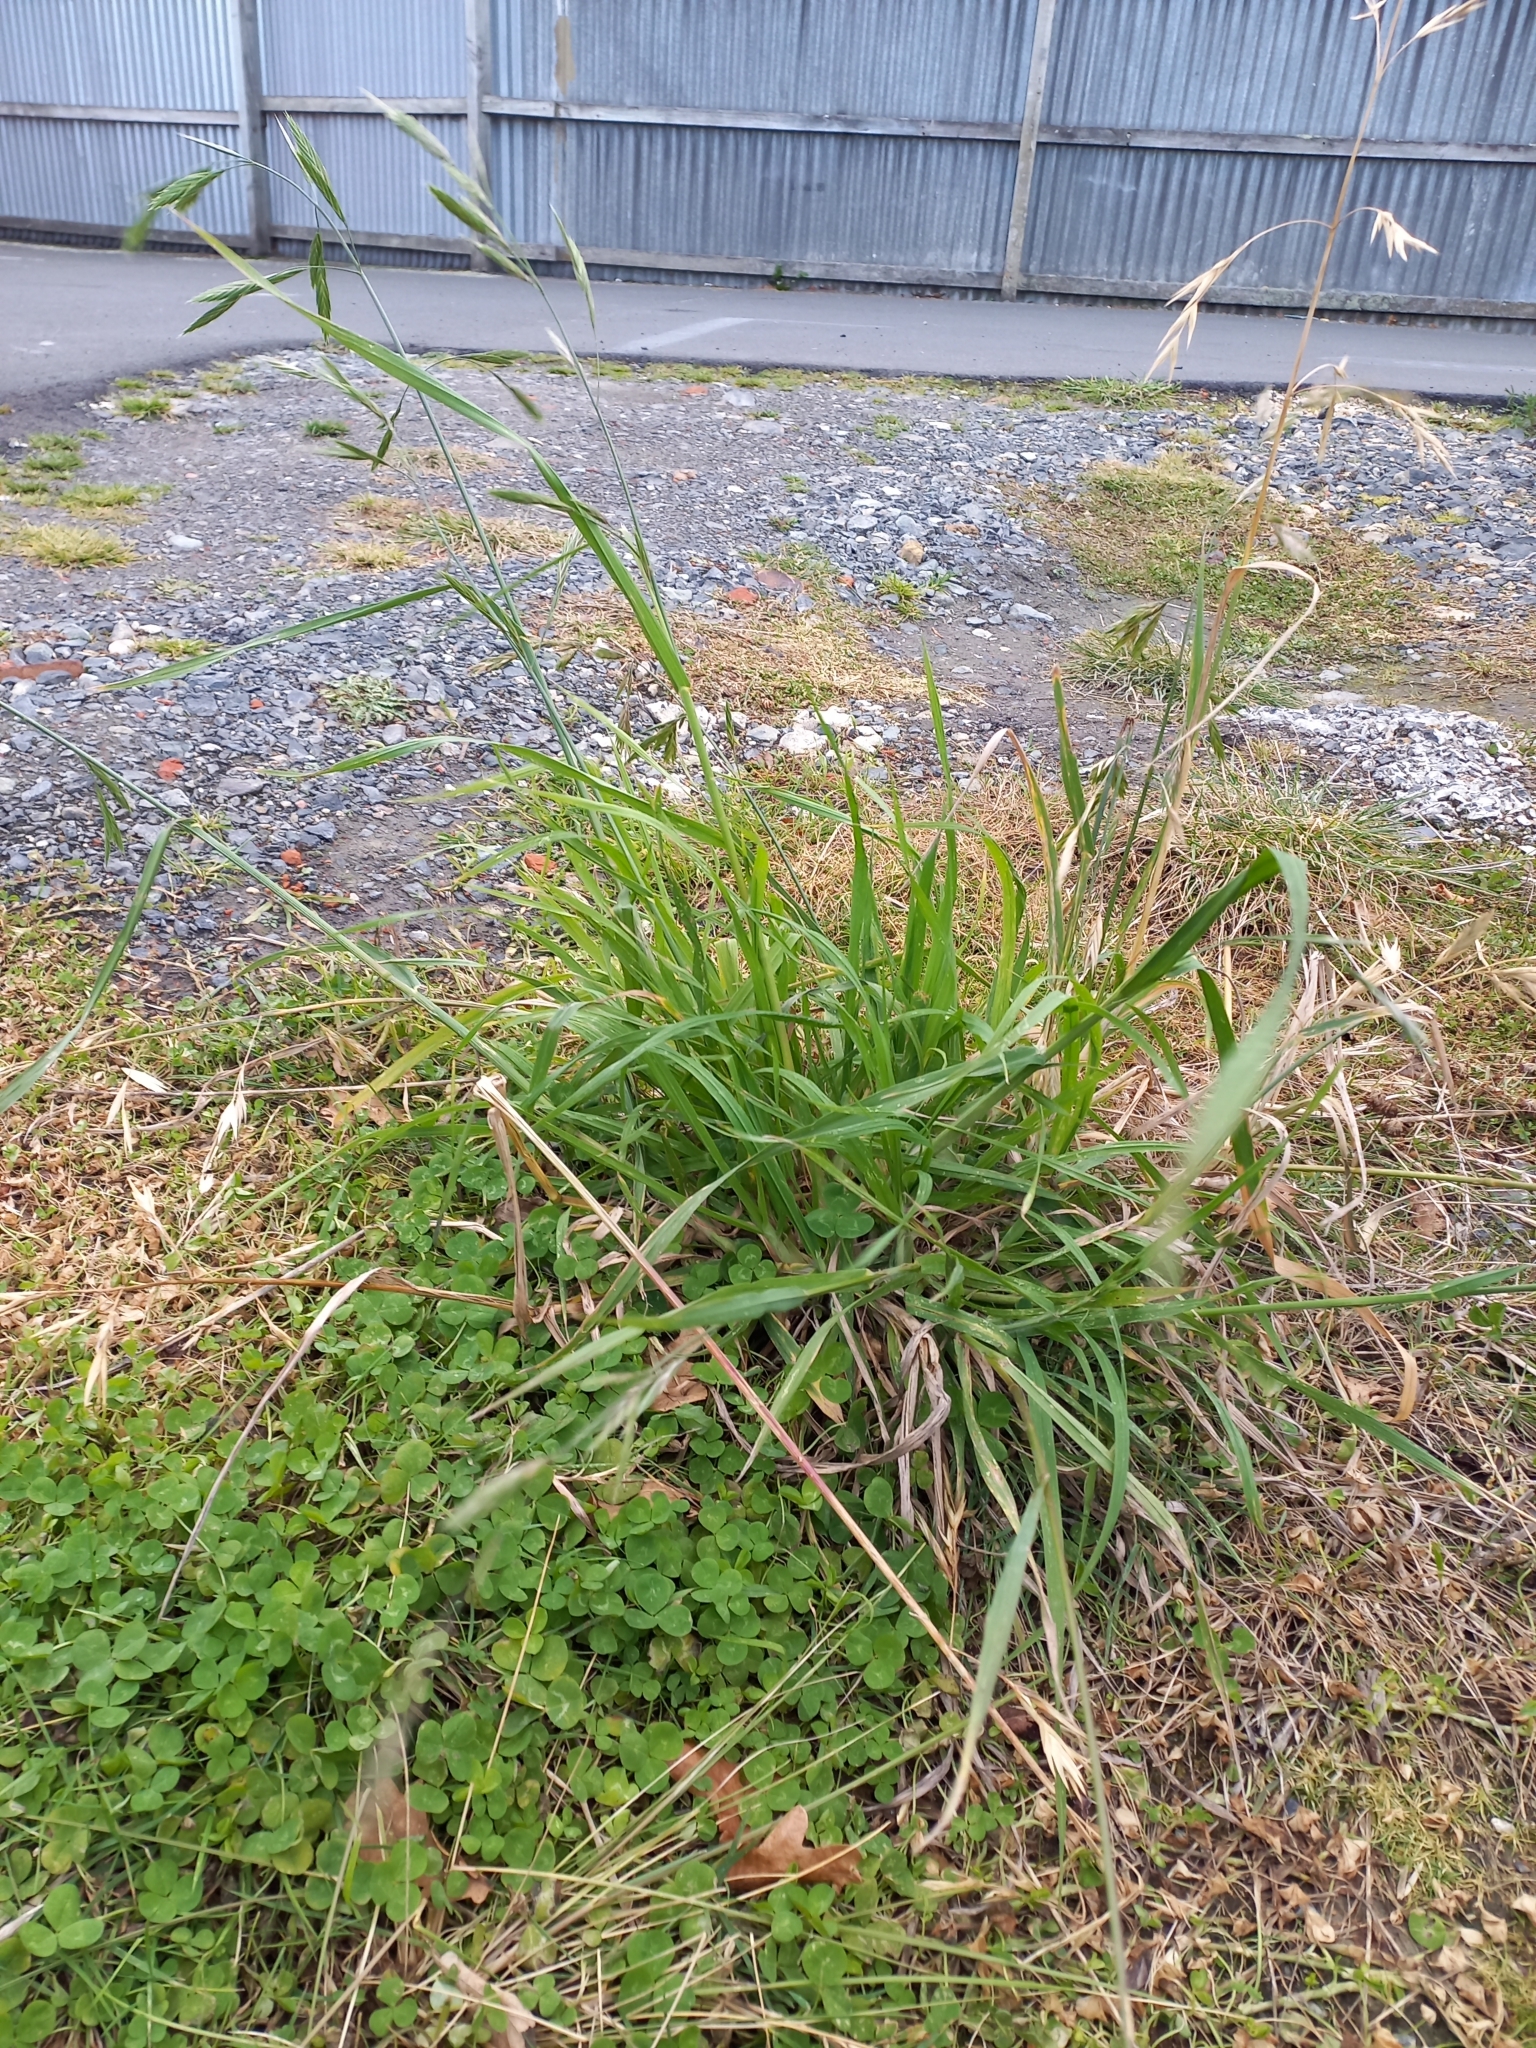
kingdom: Plantae
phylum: Tracheophyta
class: Liliopsida
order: Poales
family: Poaceae
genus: Bromus
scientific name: Bromus catharticus
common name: Rescuegrass
